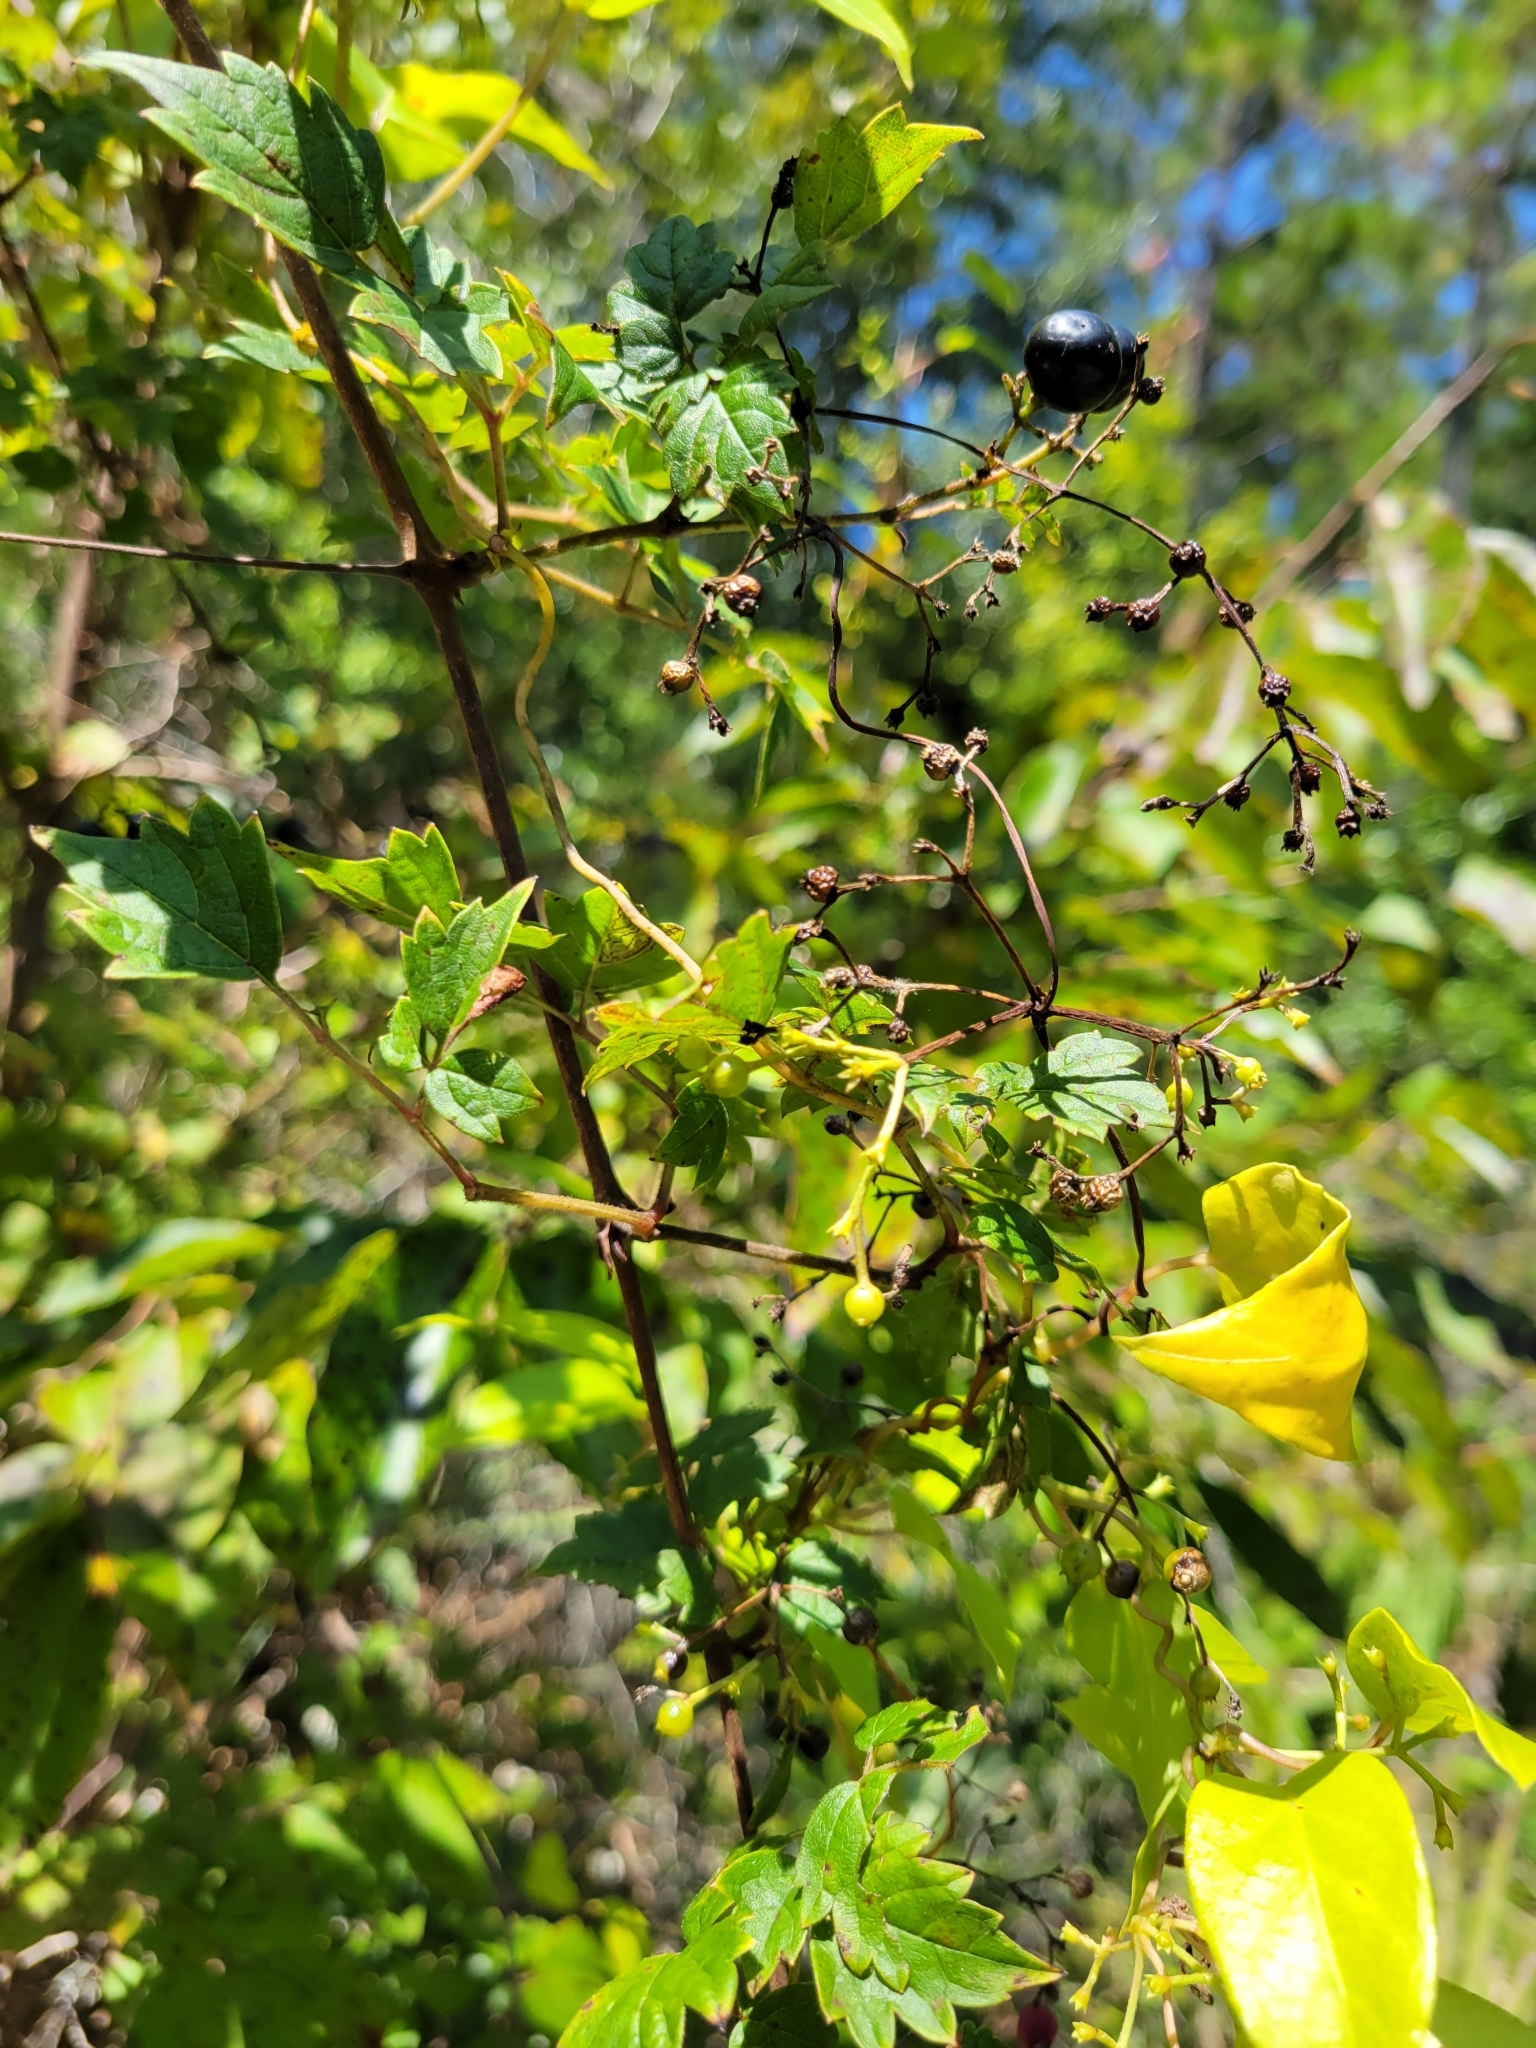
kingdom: Plantae
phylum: Tracheophyta
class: Magnoliopsida
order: Vitales
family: Vitaceae
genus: Nekemias
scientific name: Nekemias arborea
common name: Peppervine
